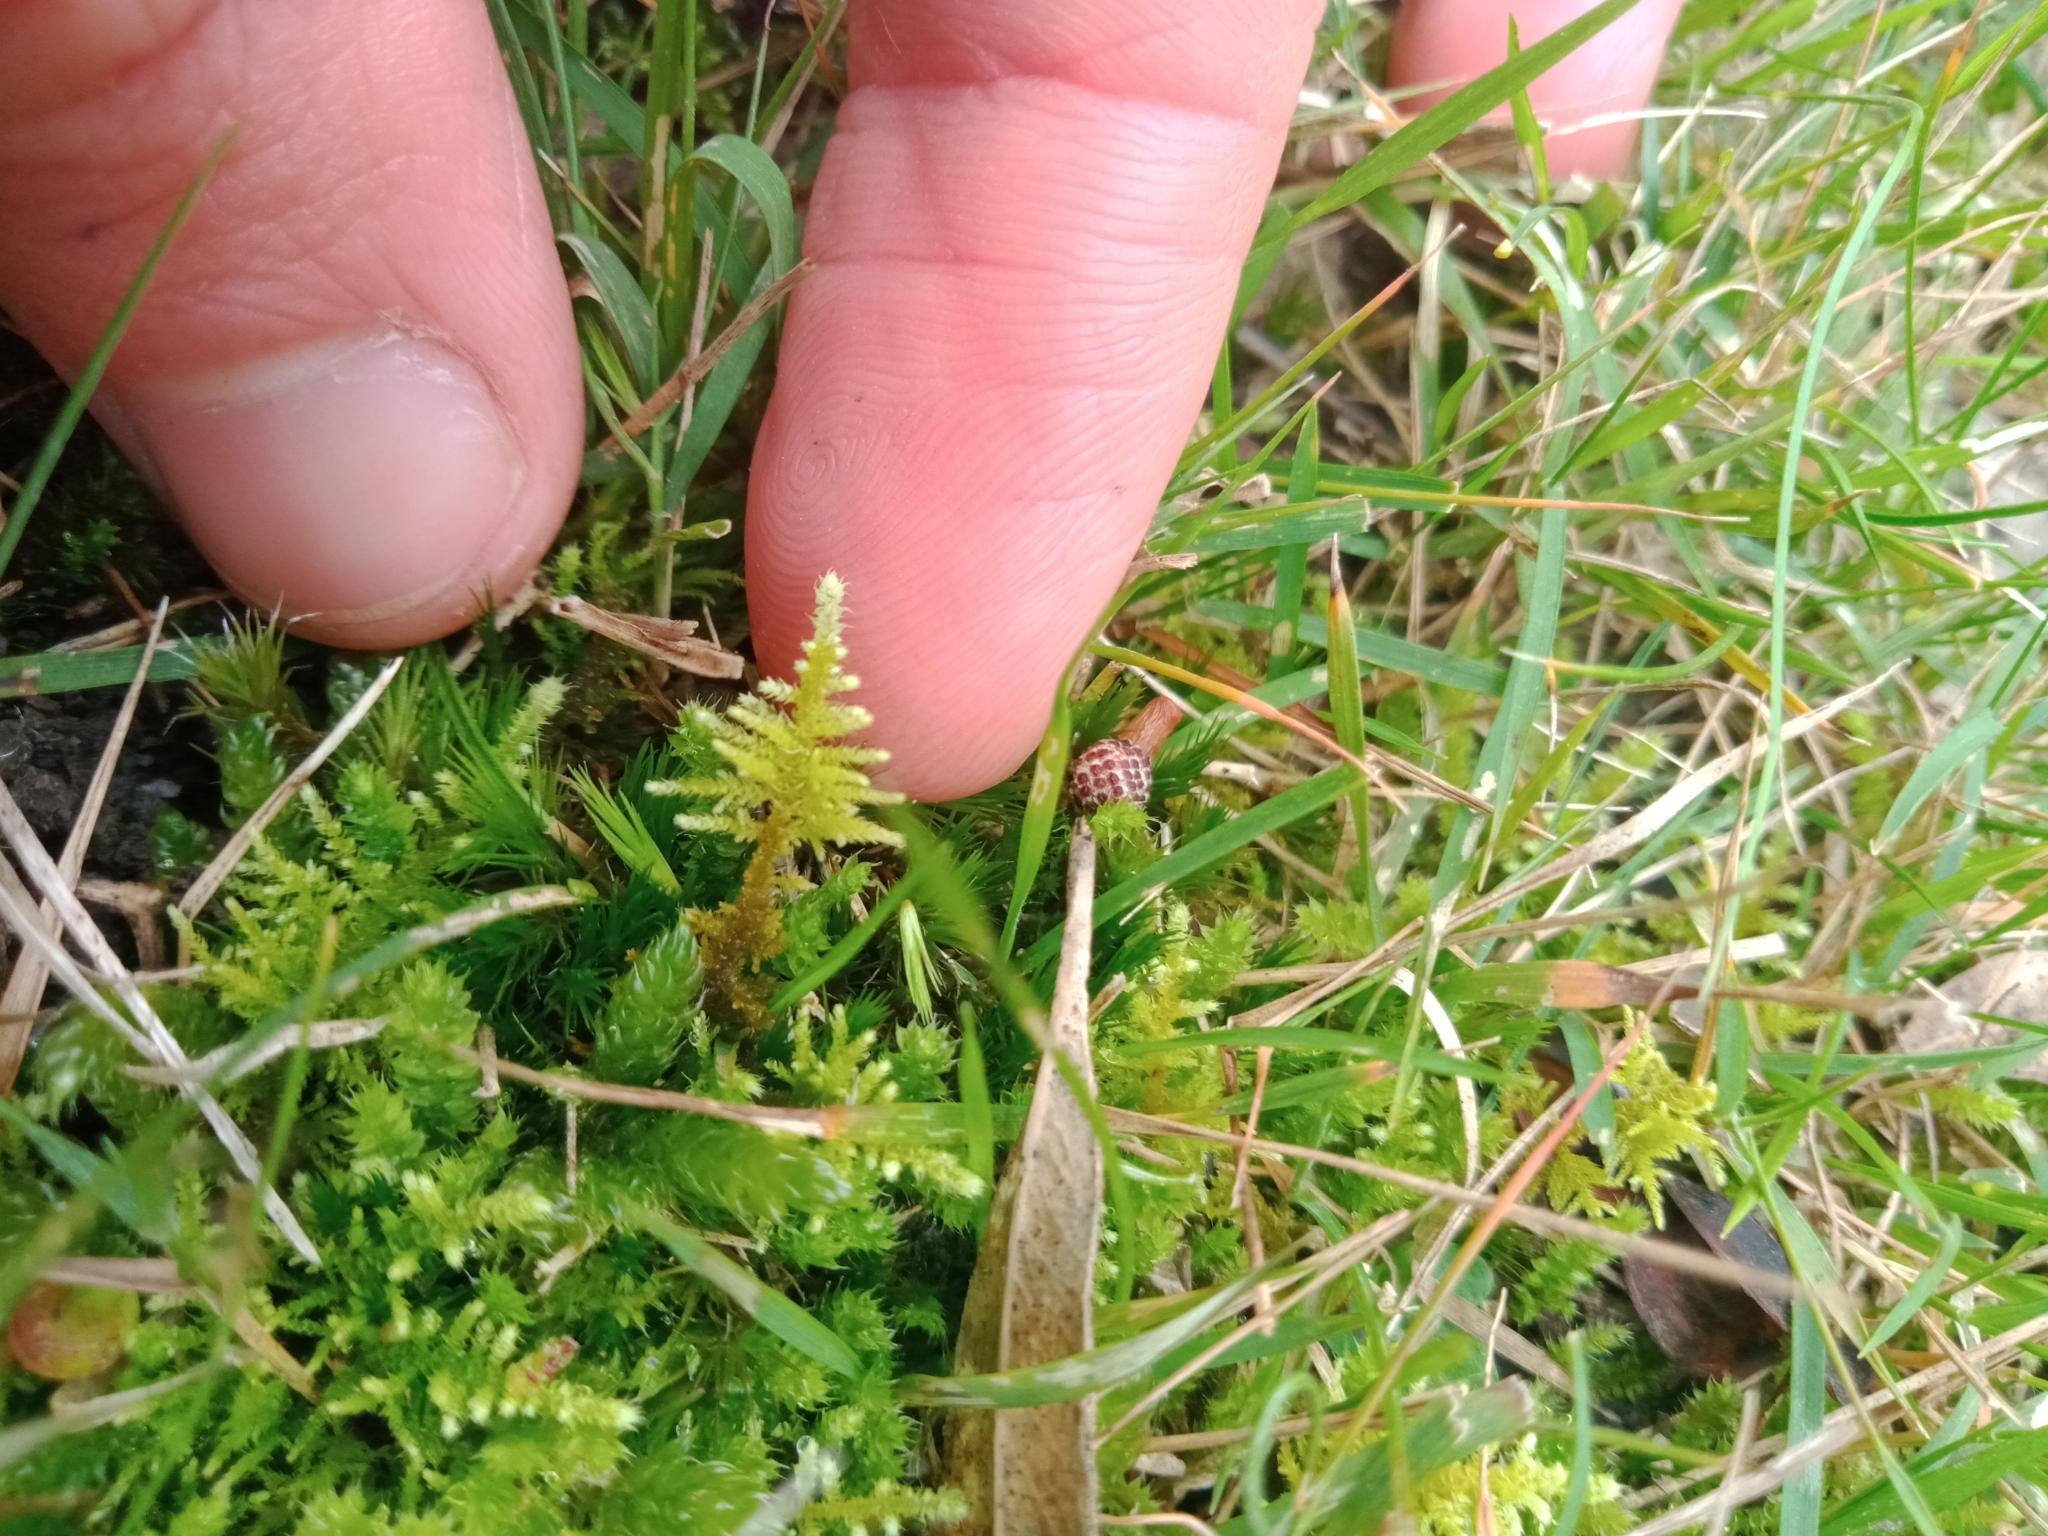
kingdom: Plantae
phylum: Bryophyta
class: Bryopsida
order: Hypnales
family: Thuidiaceae
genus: Thuidiopsis
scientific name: Thuidiopsis sparsa
